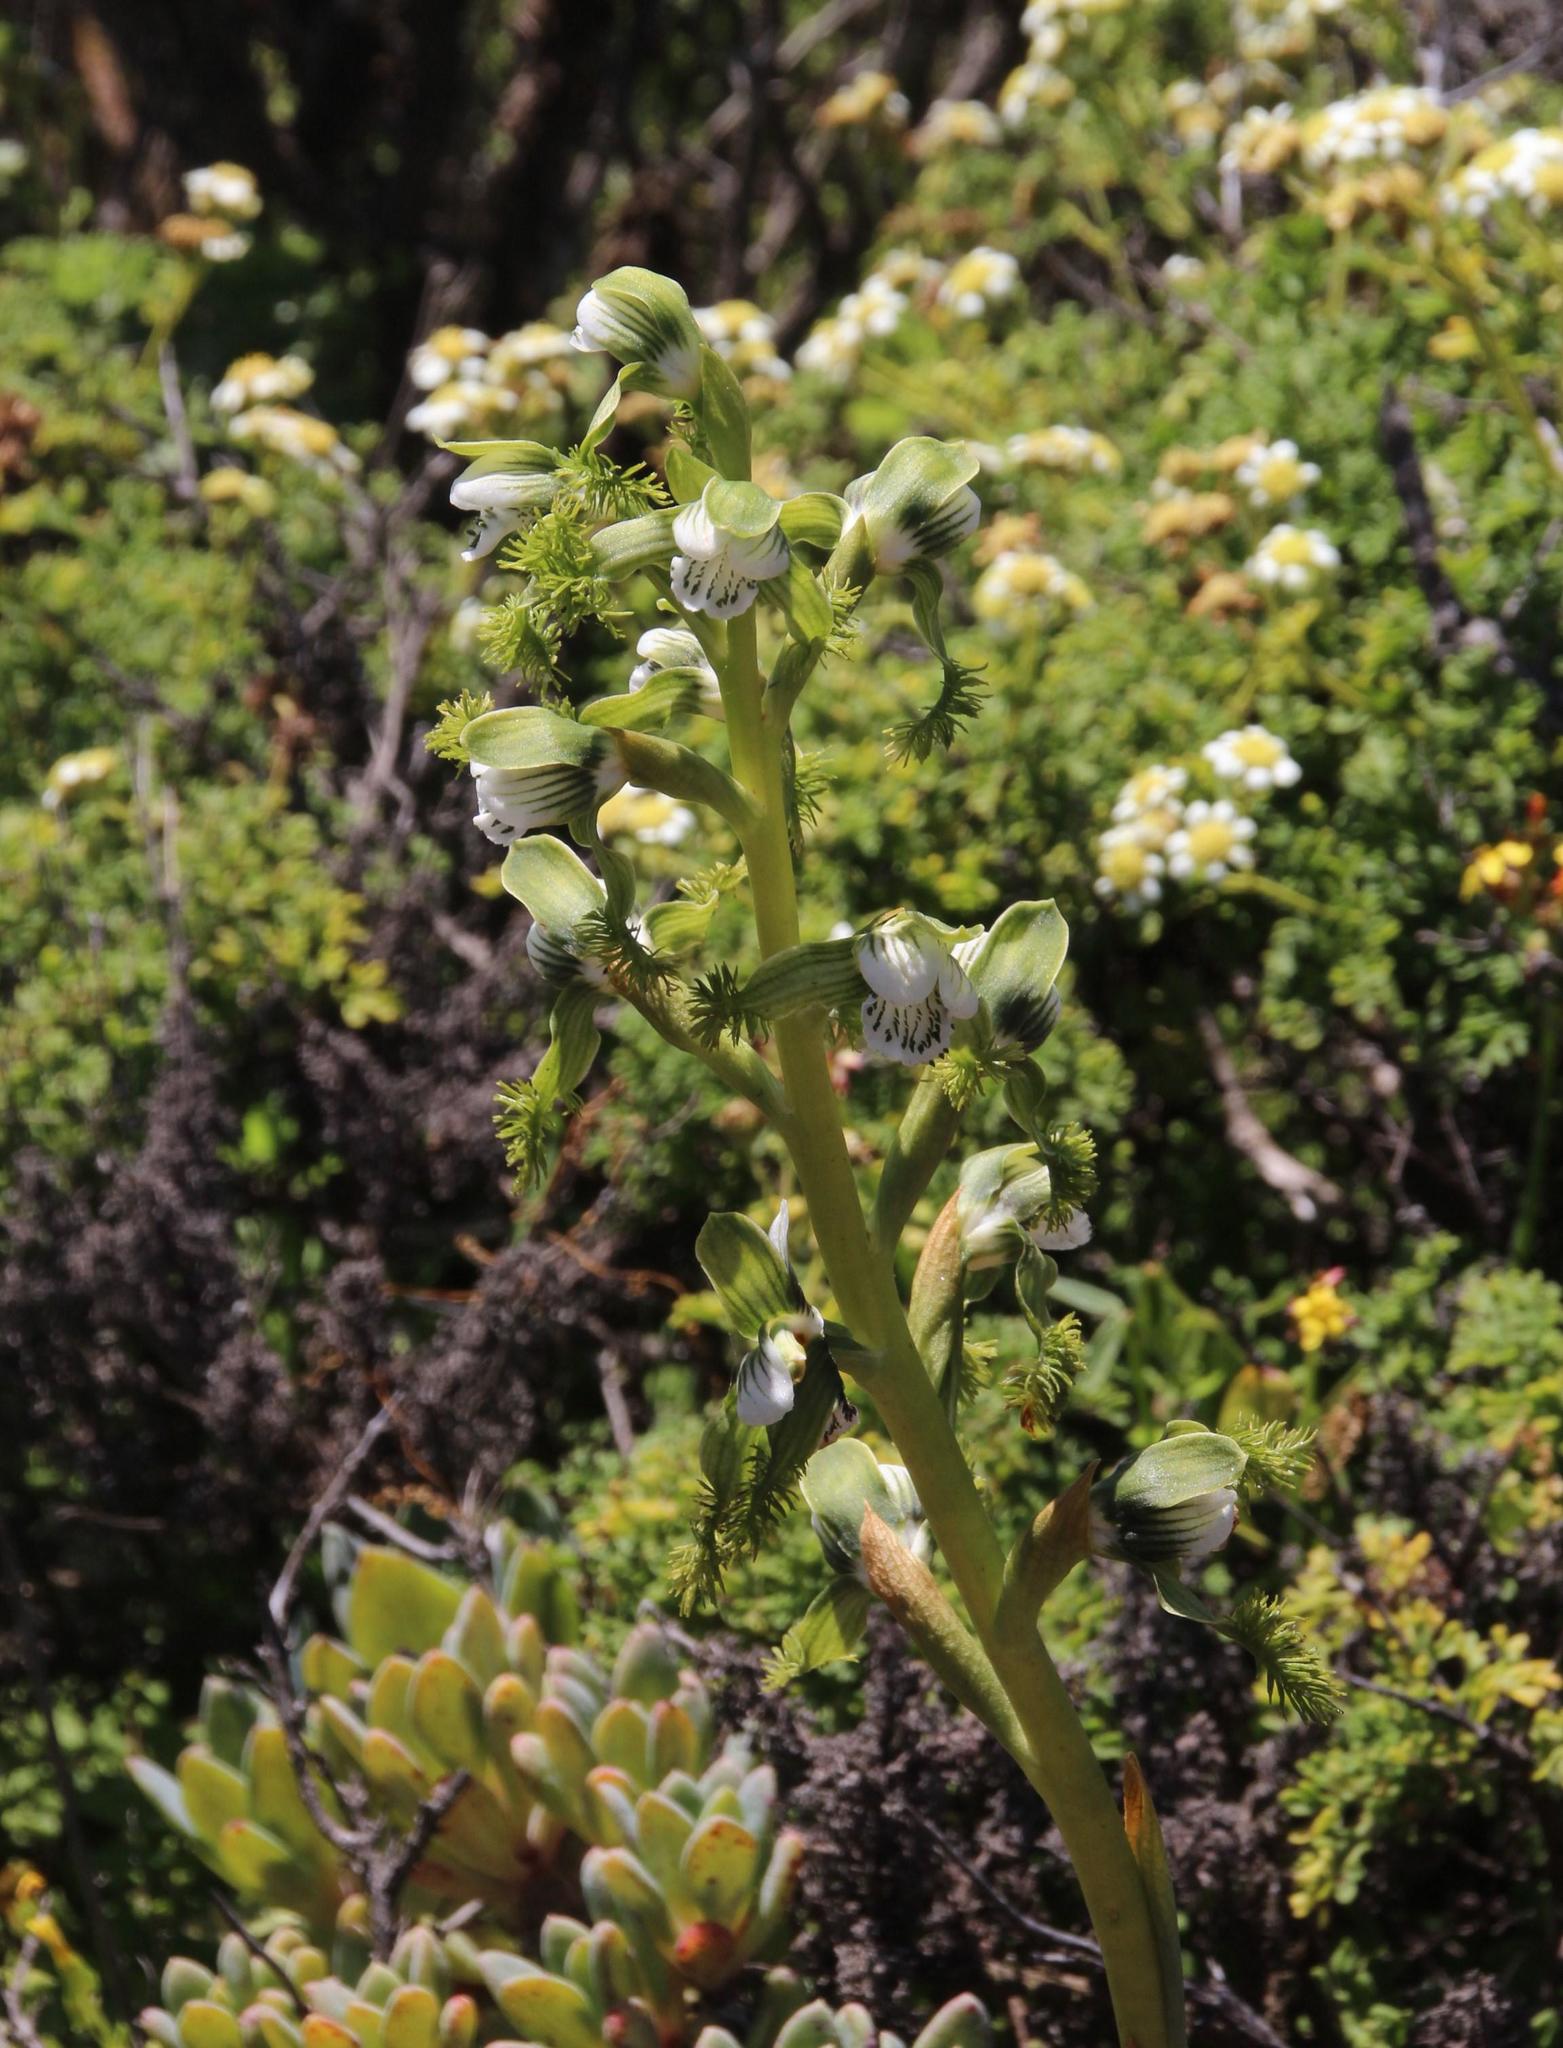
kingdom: Plantae
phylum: Tracheophyta
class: Liliopsida
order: Asparagales
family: Orchidaceae
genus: Bipinnula
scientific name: Bipinnula fimbriata
